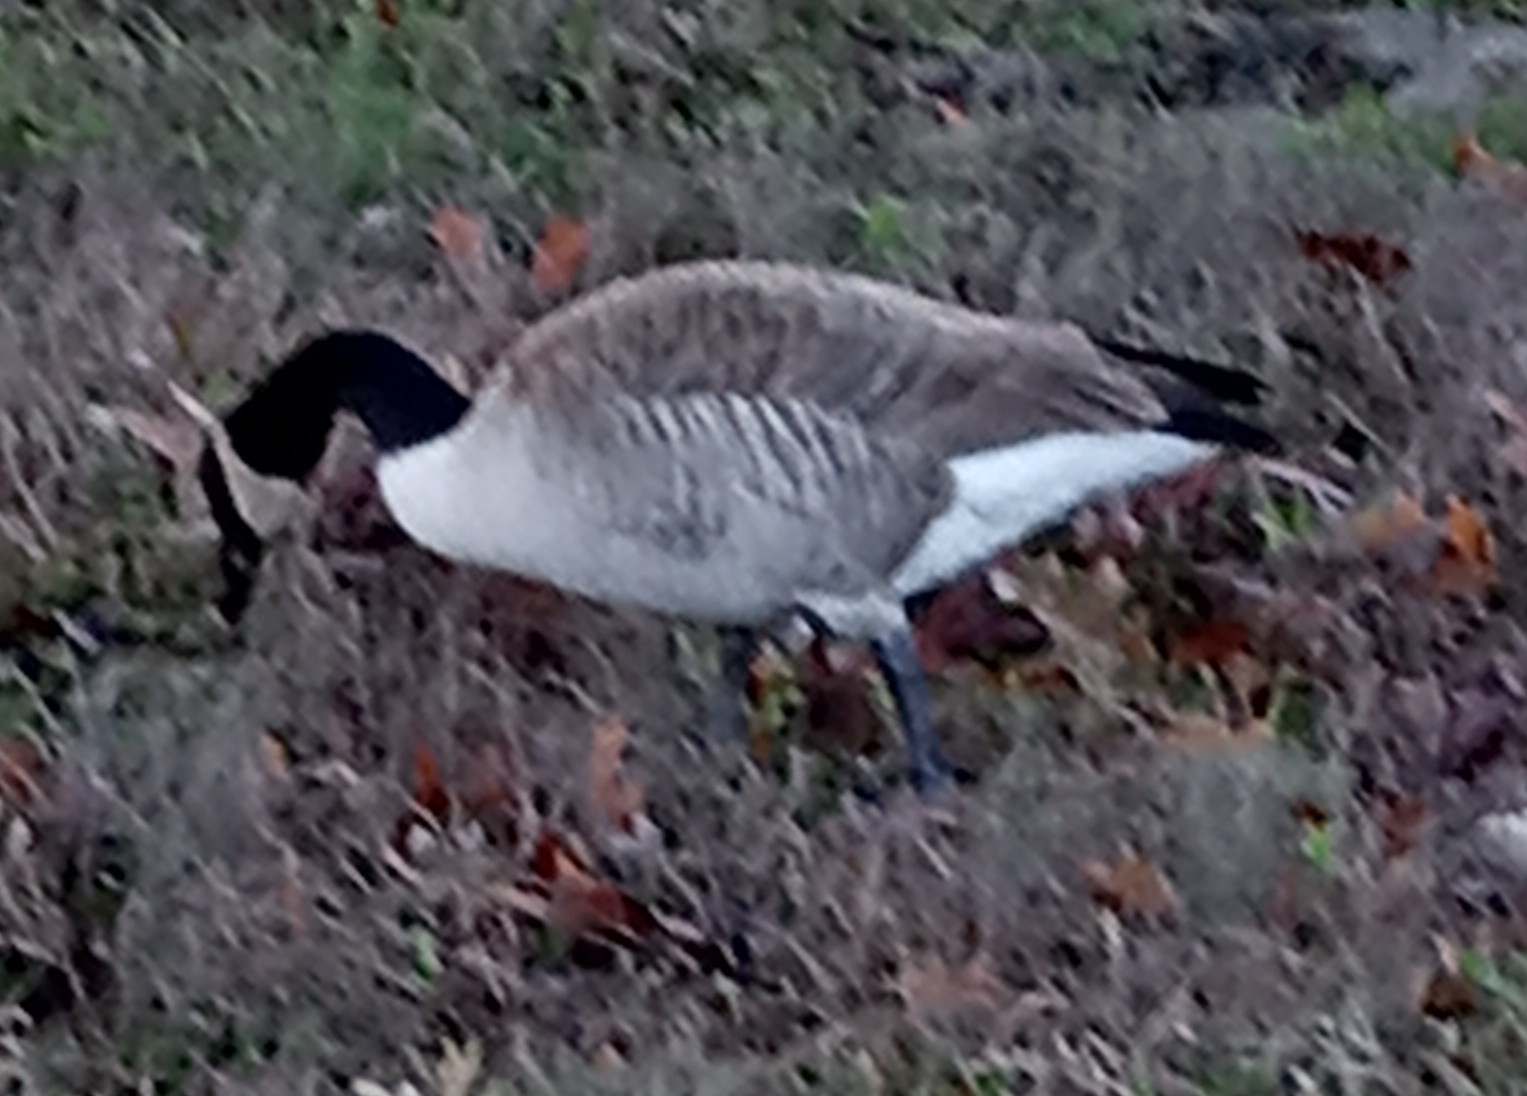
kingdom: Animalia
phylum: Chordata
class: Aves
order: Anseriformes
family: Anatidae
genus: Branta
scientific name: Branta canadensis
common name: Canada goose
